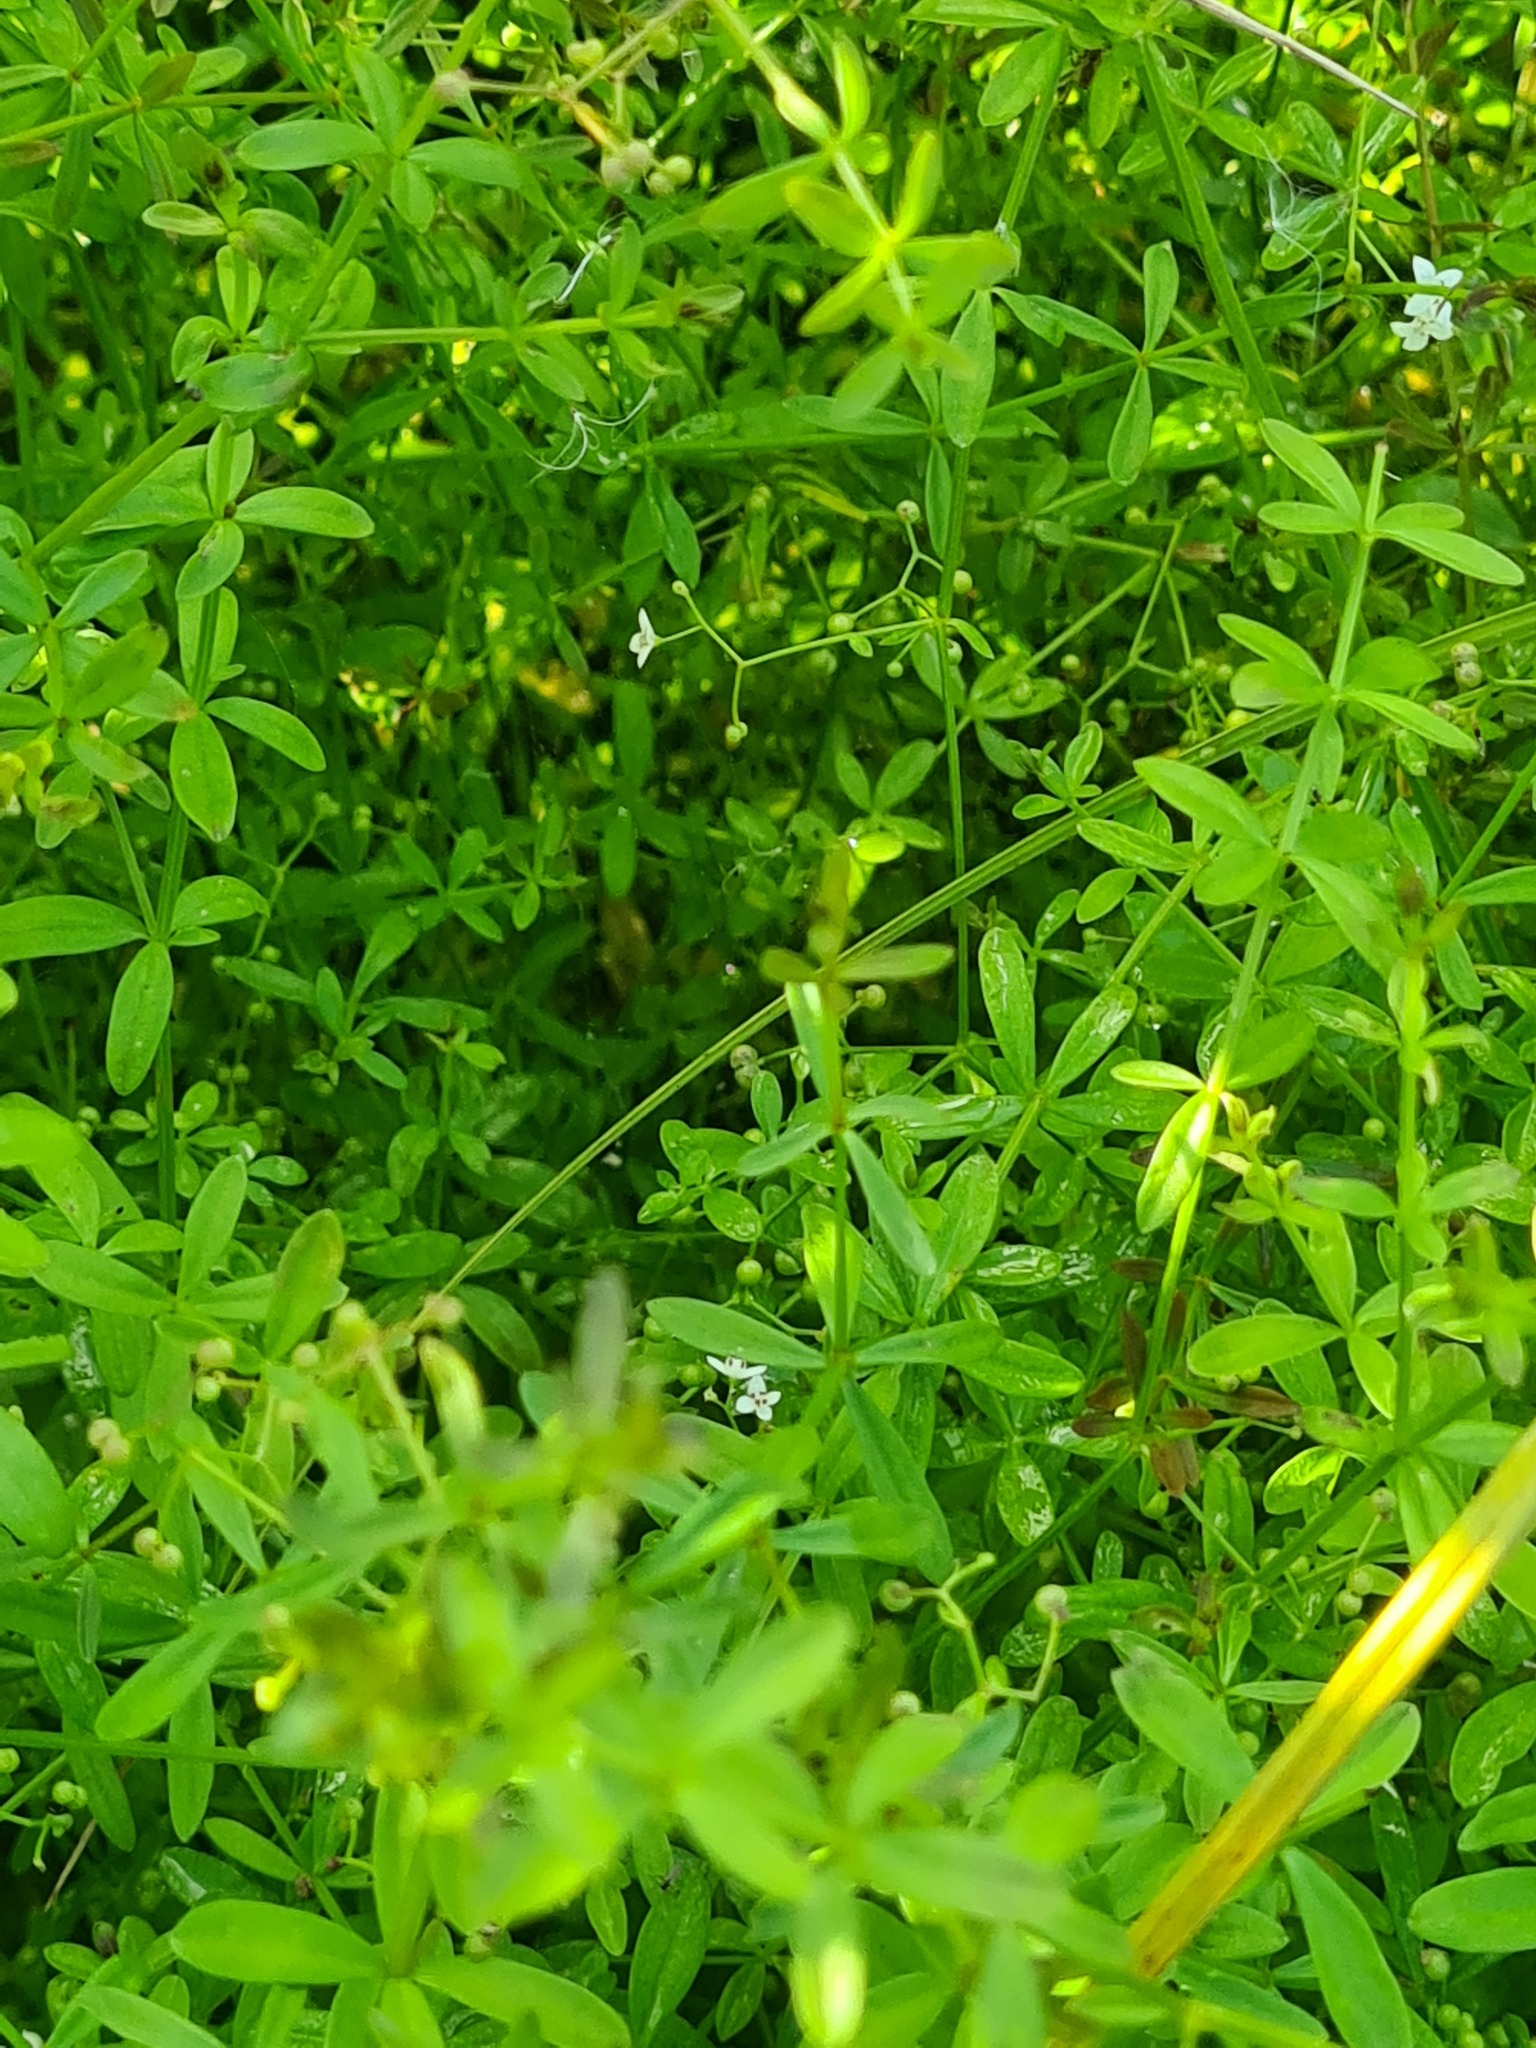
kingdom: Plantae
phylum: Tracheophyta
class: Magnoliopsida
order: Gentianales
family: Rubiaceae
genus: Galium
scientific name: Galium palustre
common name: Common marsh-bedstraw
